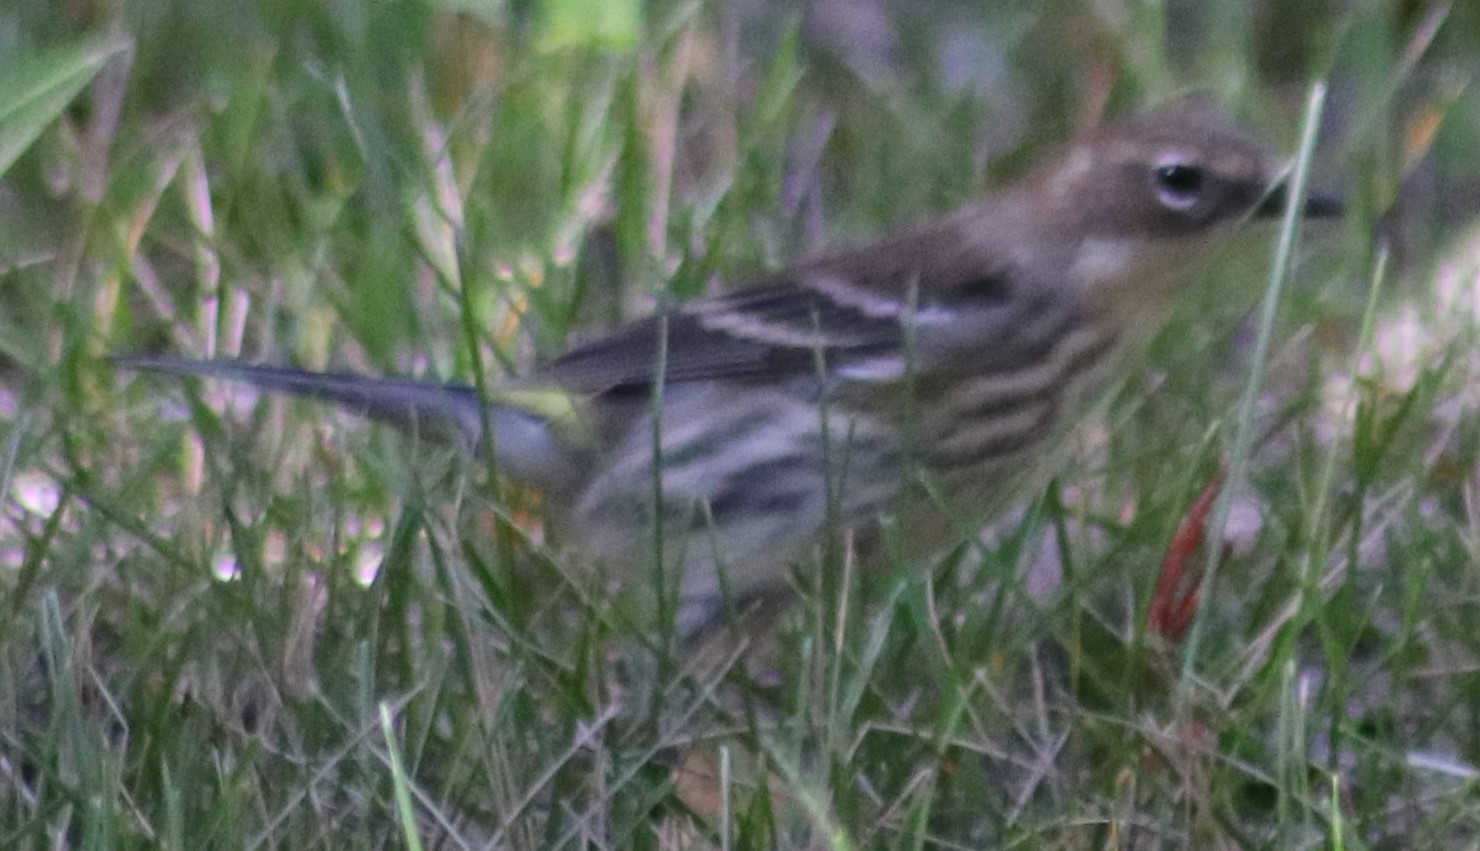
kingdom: Animalia
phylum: Chordata
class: Aves
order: Passeriformes
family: Parulidae
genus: Setophaga
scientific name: Setophaga coronata
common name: Myrtle warbler
